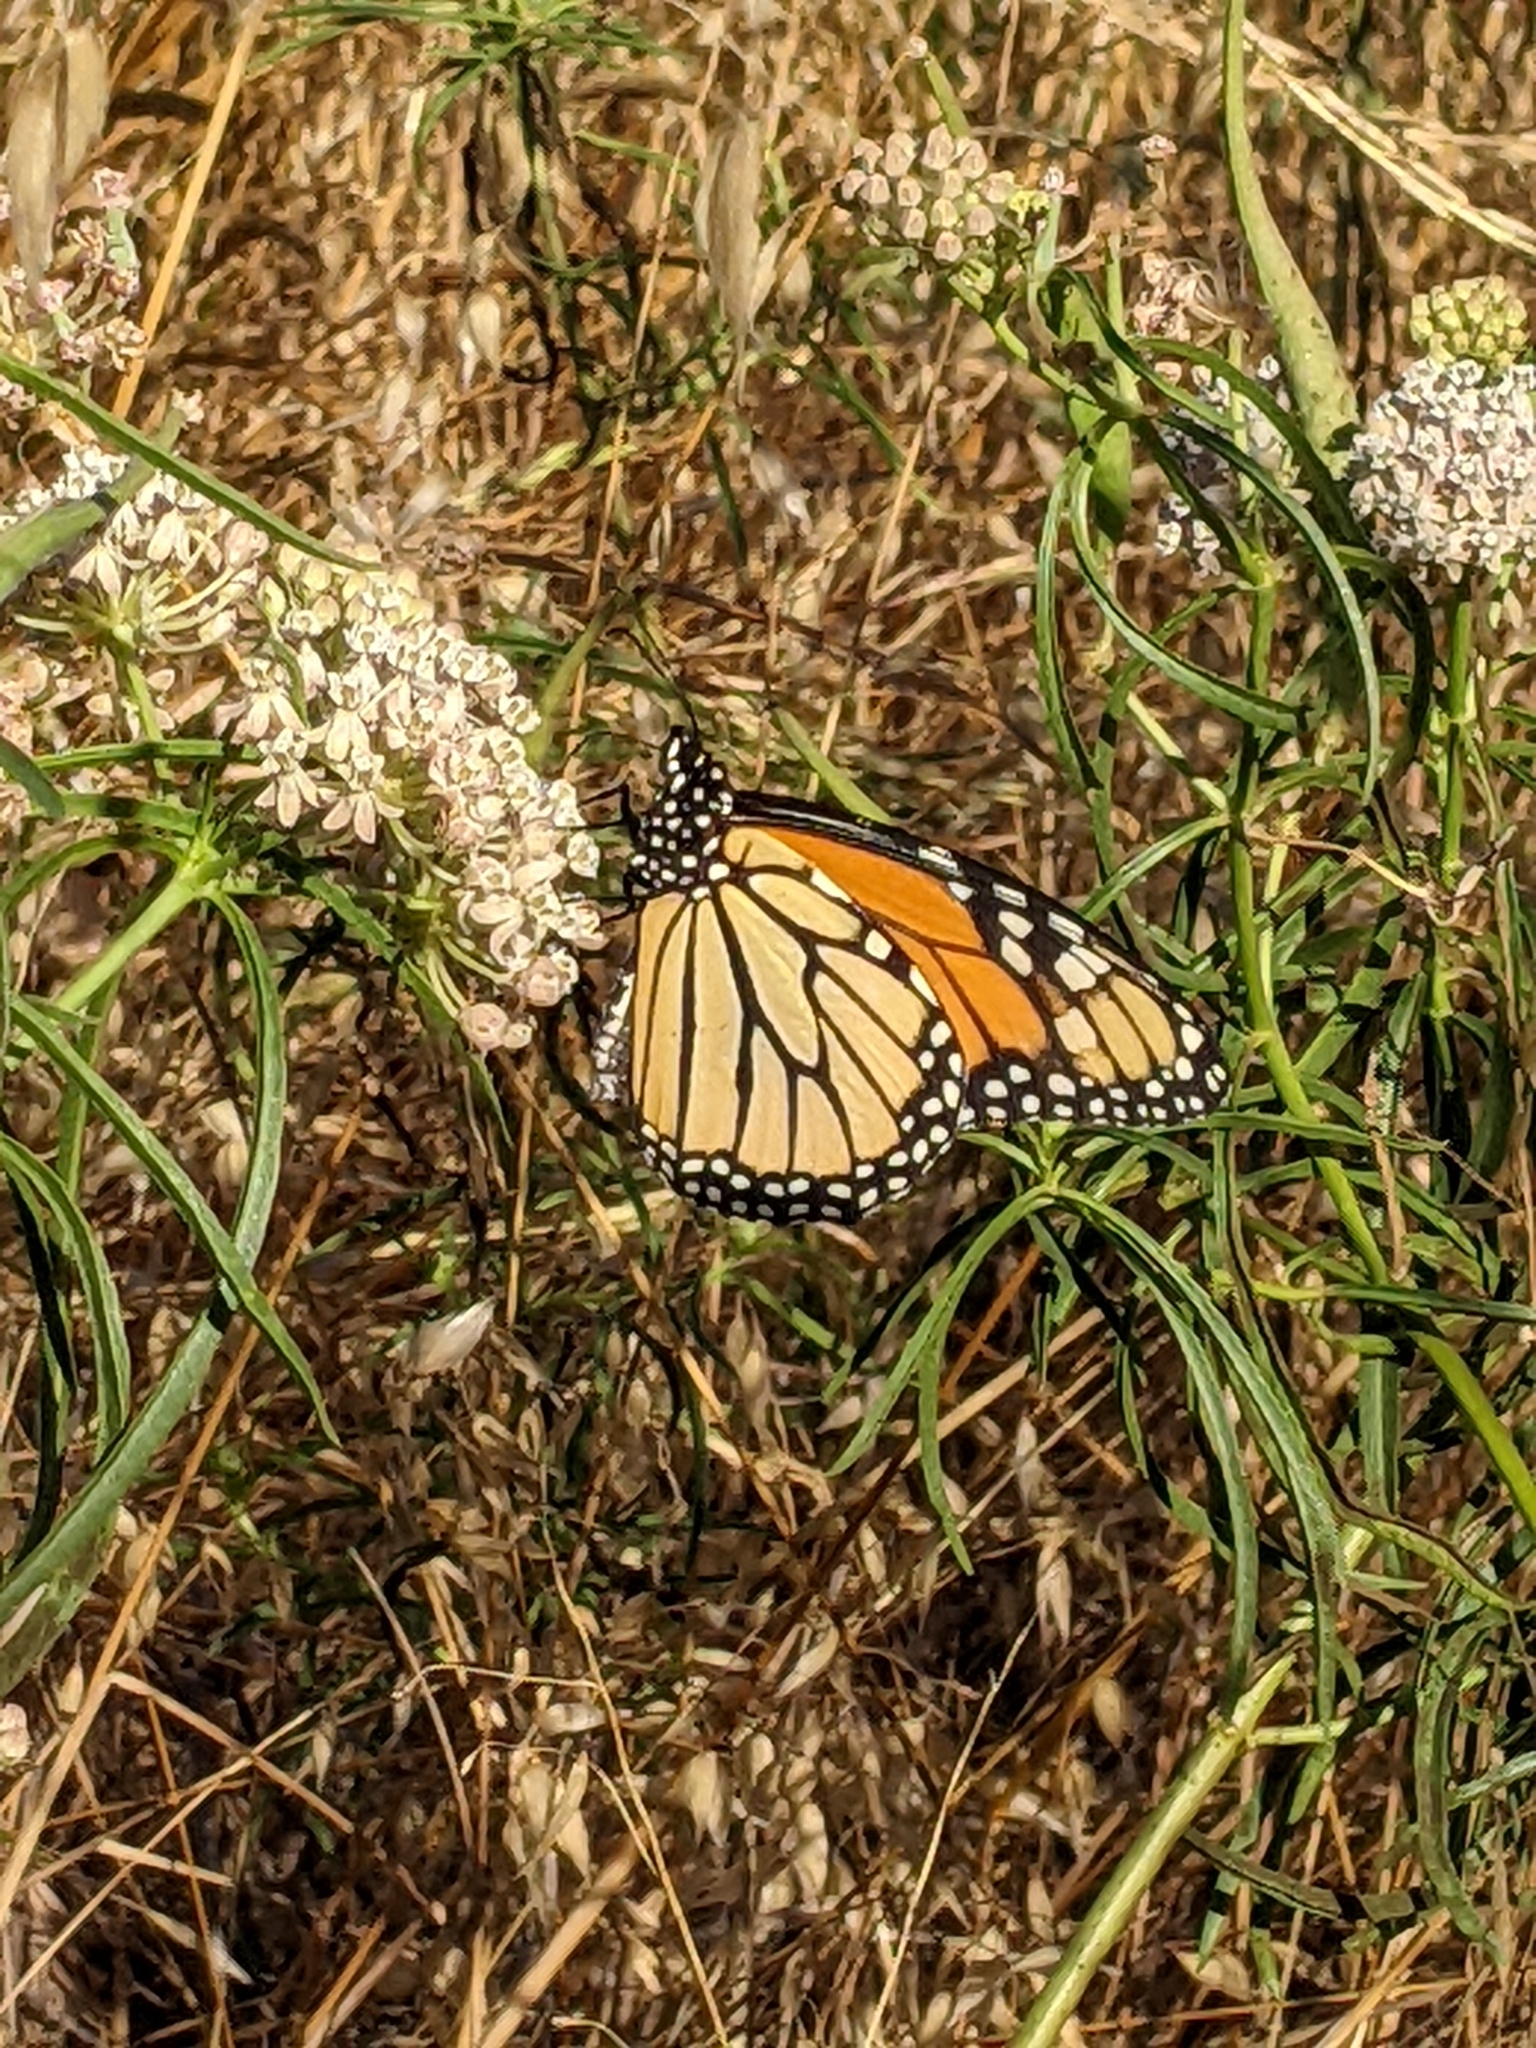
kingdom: Animalia
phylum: Arthropoda
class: Insecta
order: Lepidoptera
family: Nymphalidae
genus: Danaus
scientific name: Danaus plexippus
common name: Monarch
